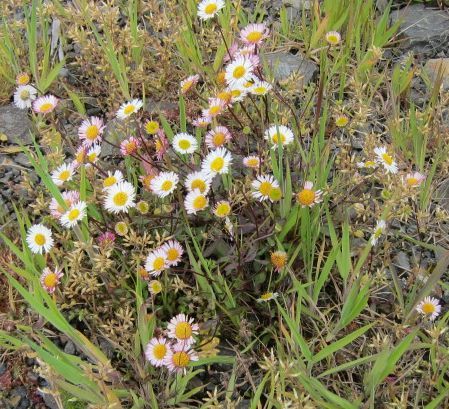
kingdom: Plantae
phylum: Tracheophyta
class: Magnoliopsida
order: Asterales
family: Asteraceae
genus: Erigeron
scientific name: Erigeron karvinskianus
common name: Mexican fleabane
